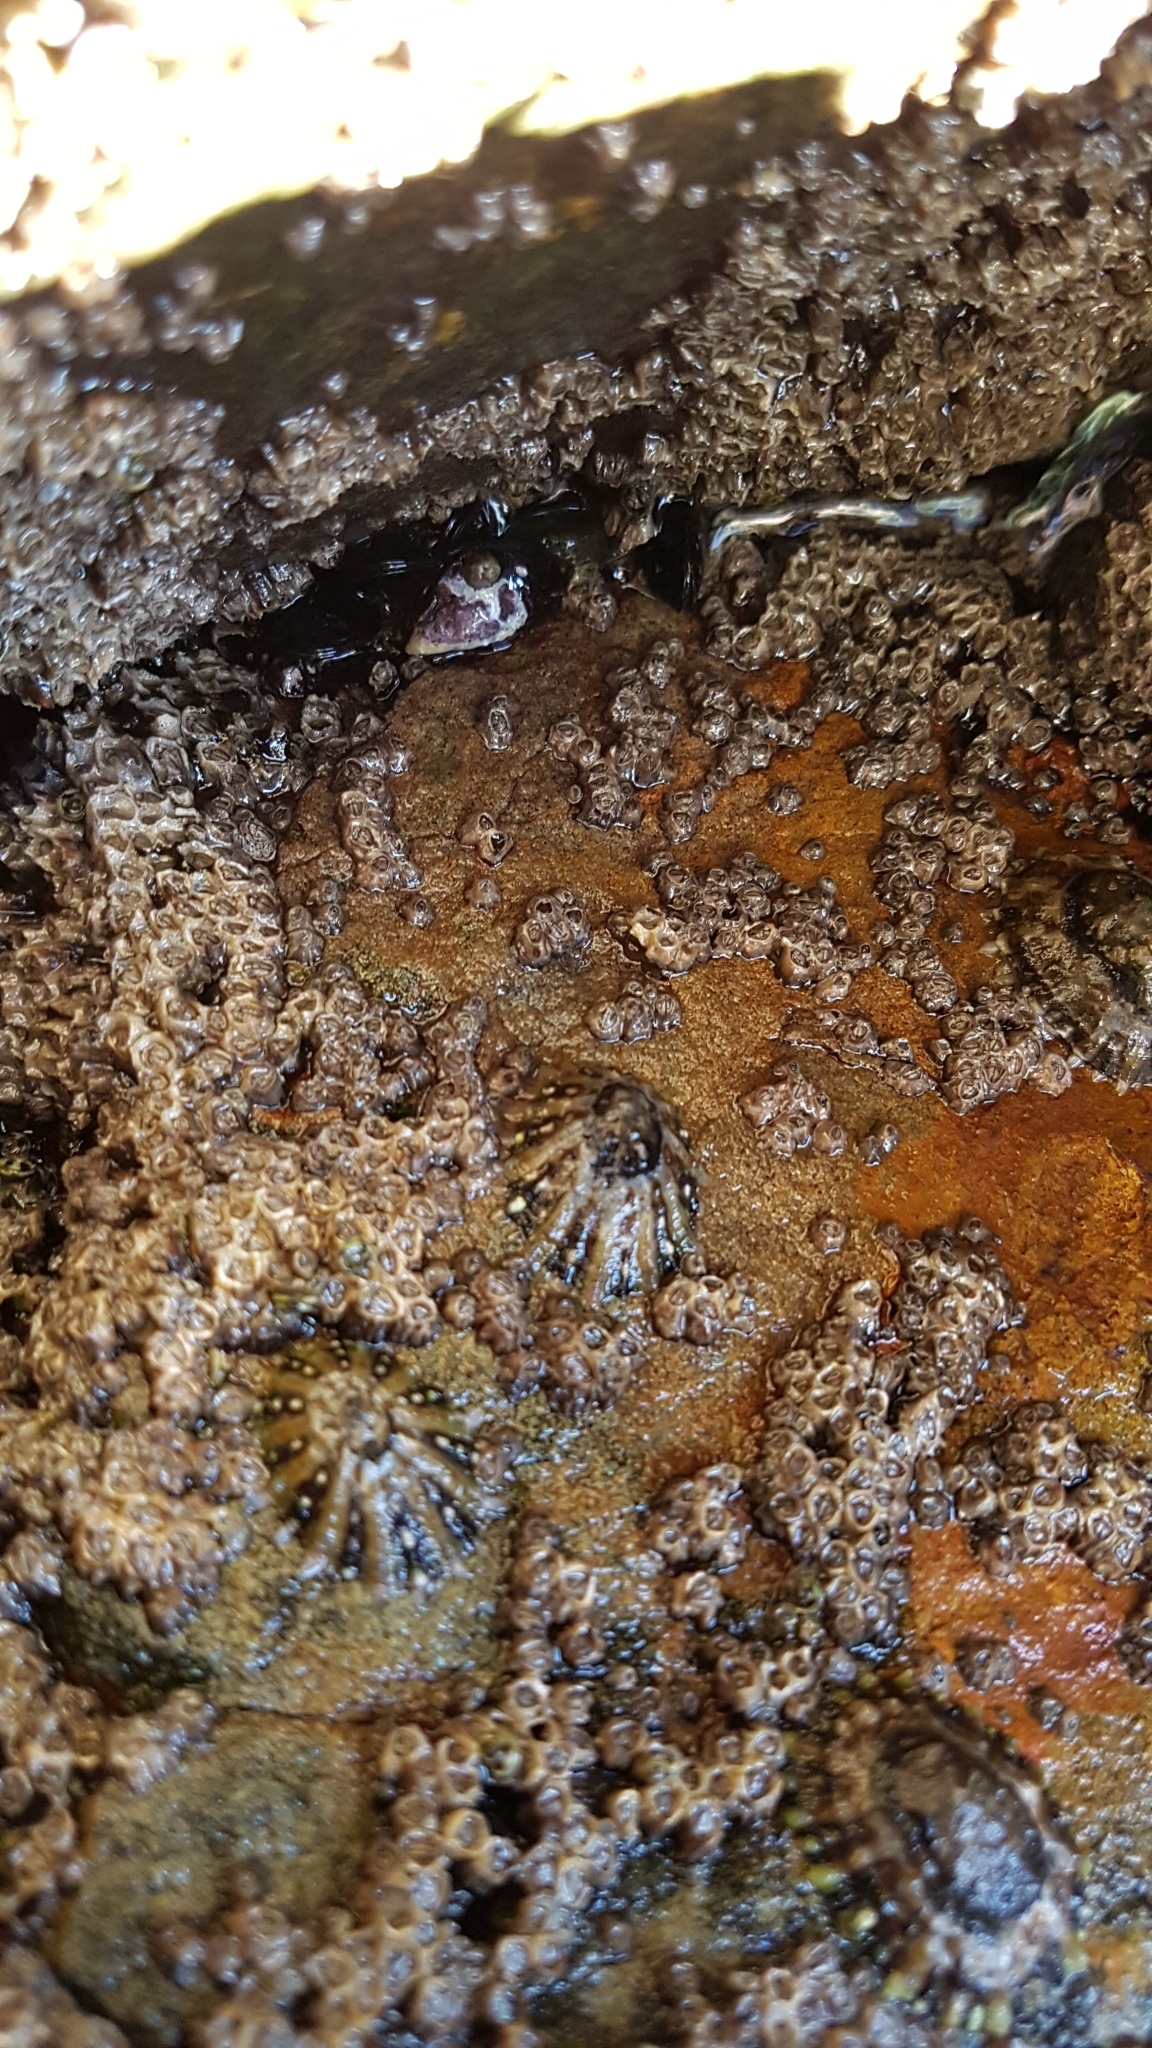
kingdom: Animalia
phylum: Mollusca
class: Gastropoda
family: Nacellidae
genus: Cellana
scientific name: Cellana ornata
